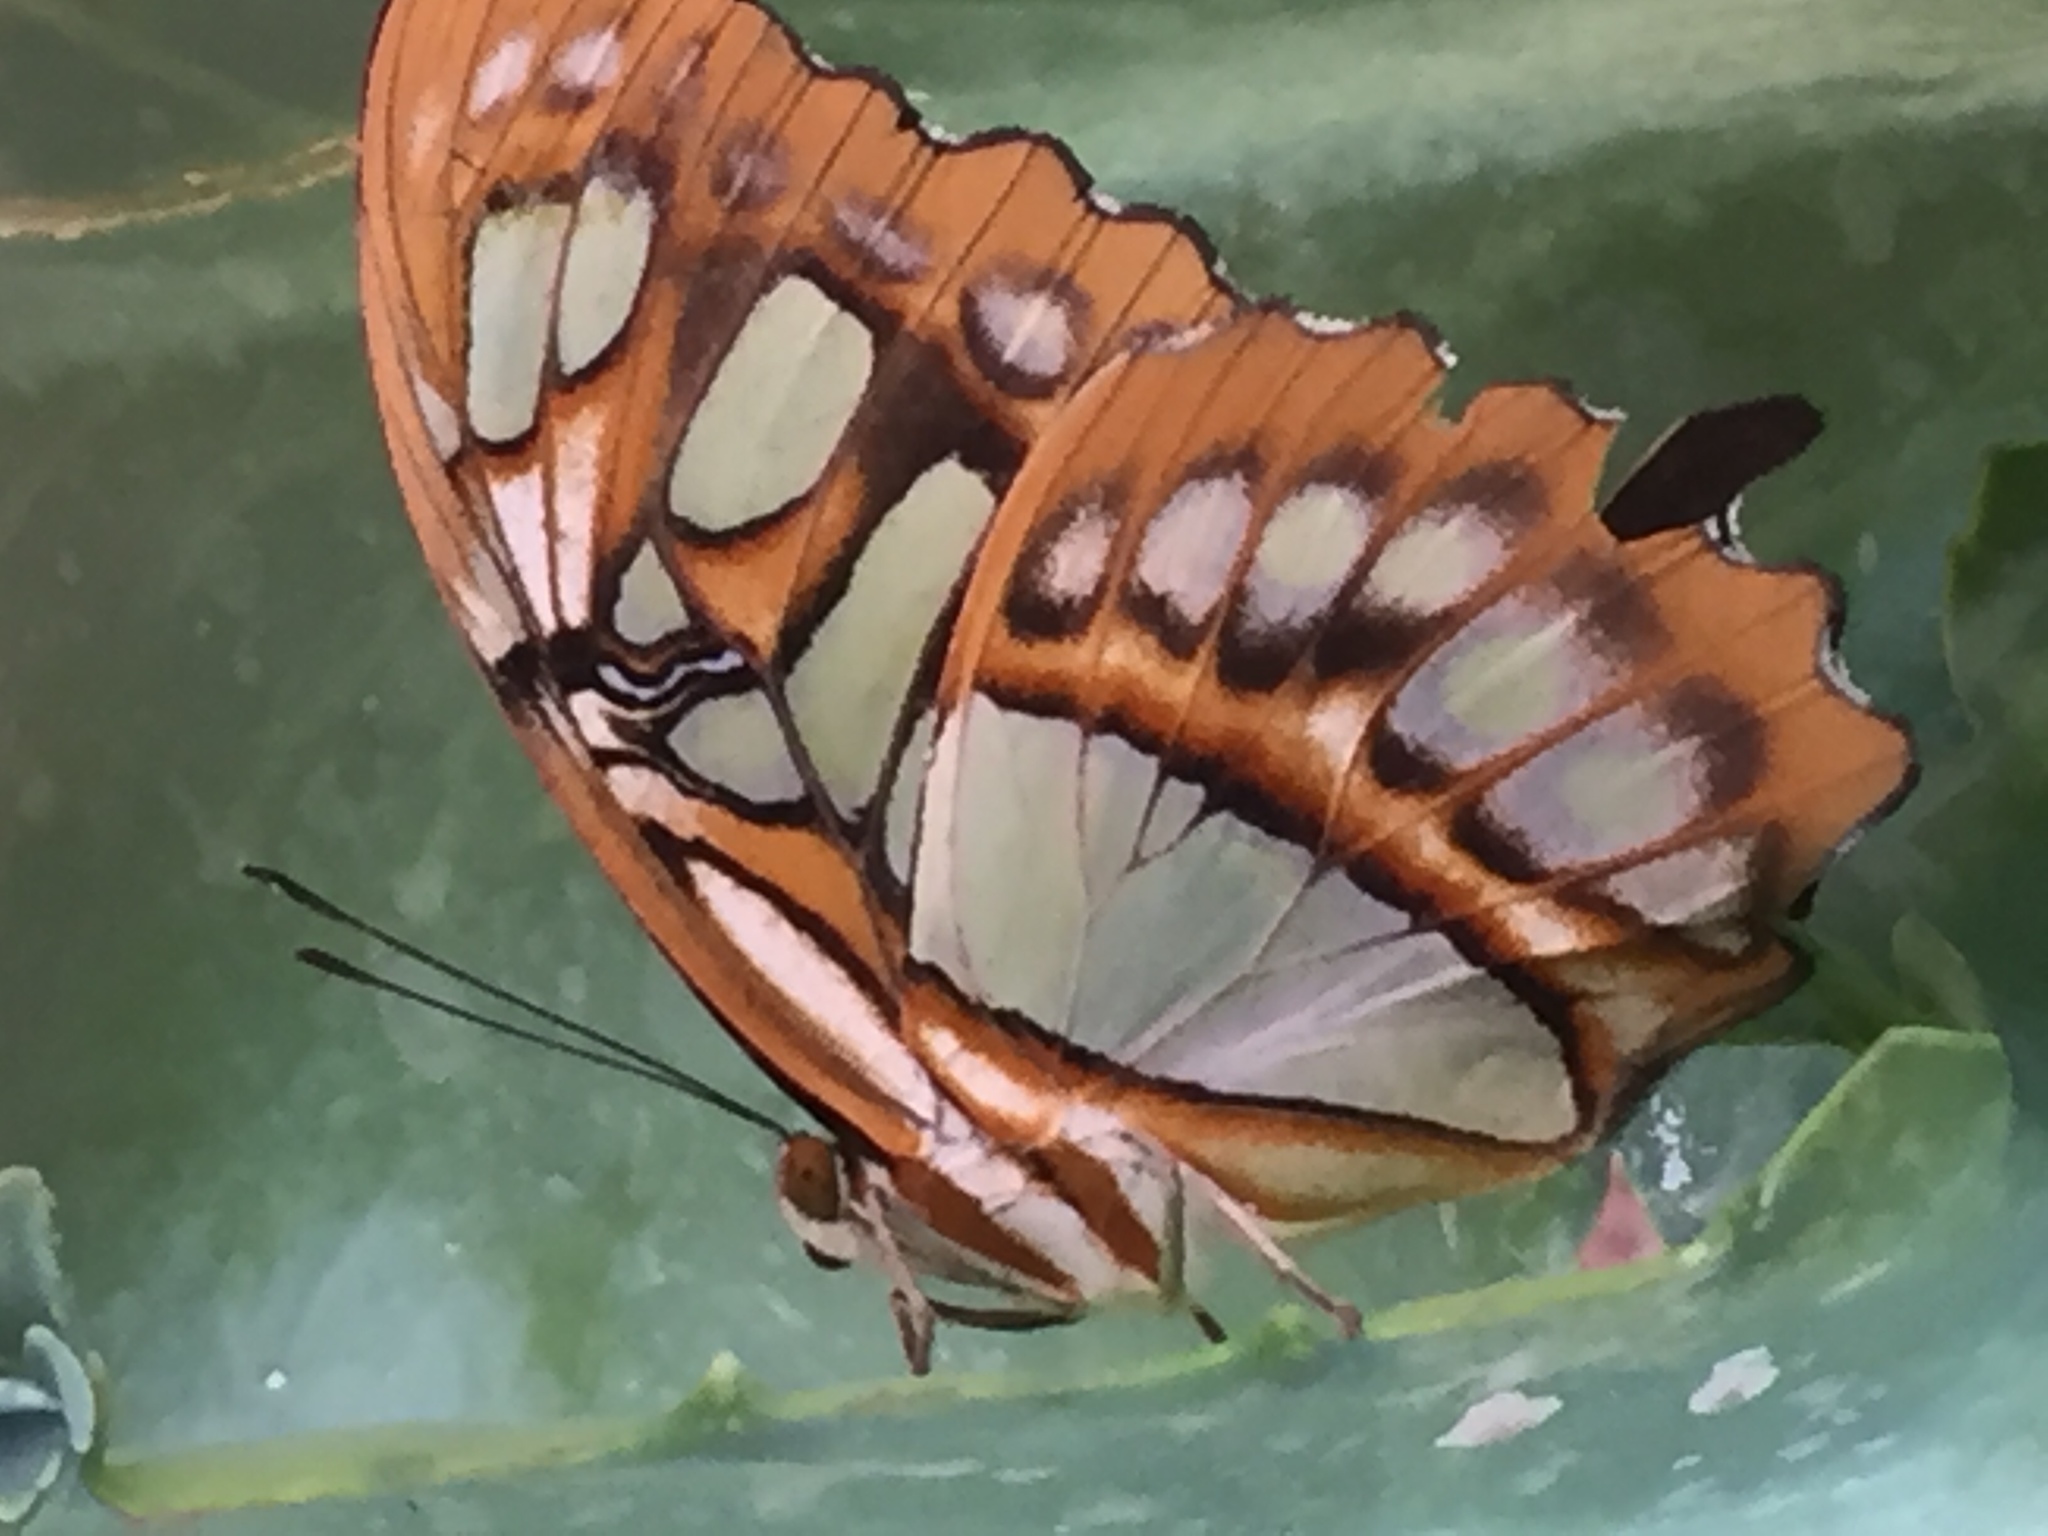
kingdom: Animalia
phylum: Arthropoda
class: Insecta
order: Lepidoptera
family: Nymphalidae
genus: Siproeta
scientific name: Siproeta stelenes
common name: Malachite
